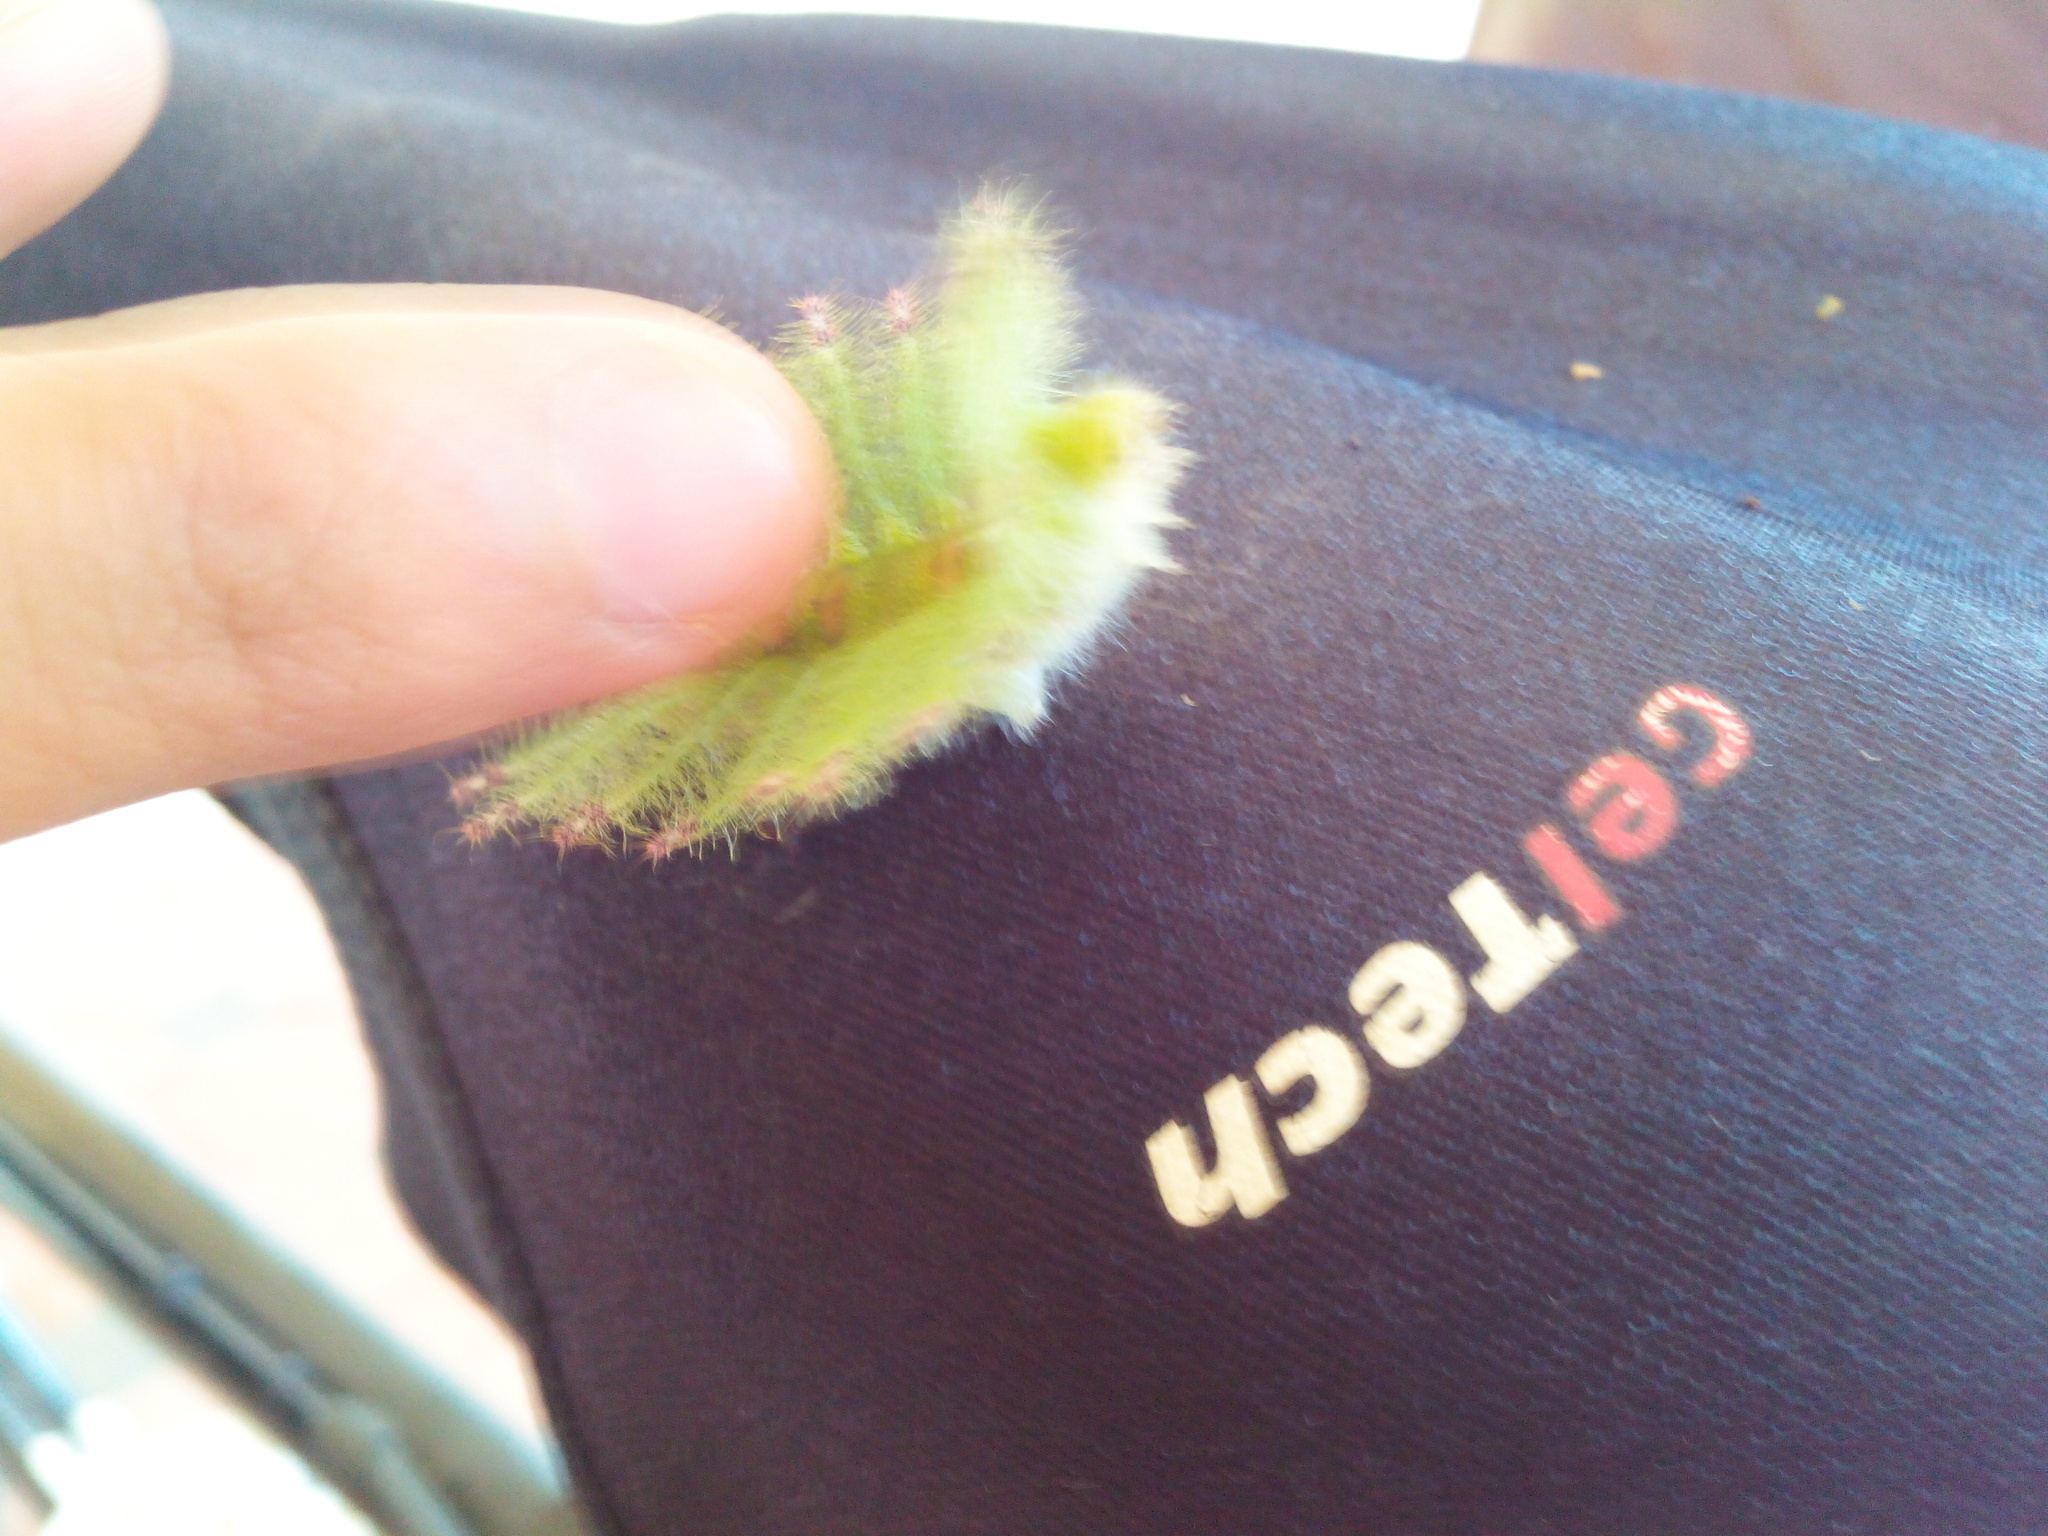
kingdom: Animalia
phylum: Arthropoda
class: Insecta
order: Lepidoptera
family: Nymphalidae
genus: Euthalia
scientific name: Euthalia lubentina
